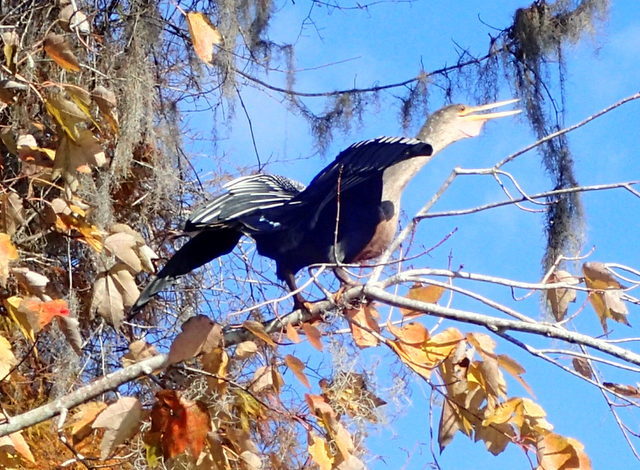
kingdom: Animalia
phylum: Chordata
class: Aves
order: Suliformes
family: Anhingidae
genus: Anhinga
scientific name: Anhinga anhinga
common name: Anhinga
